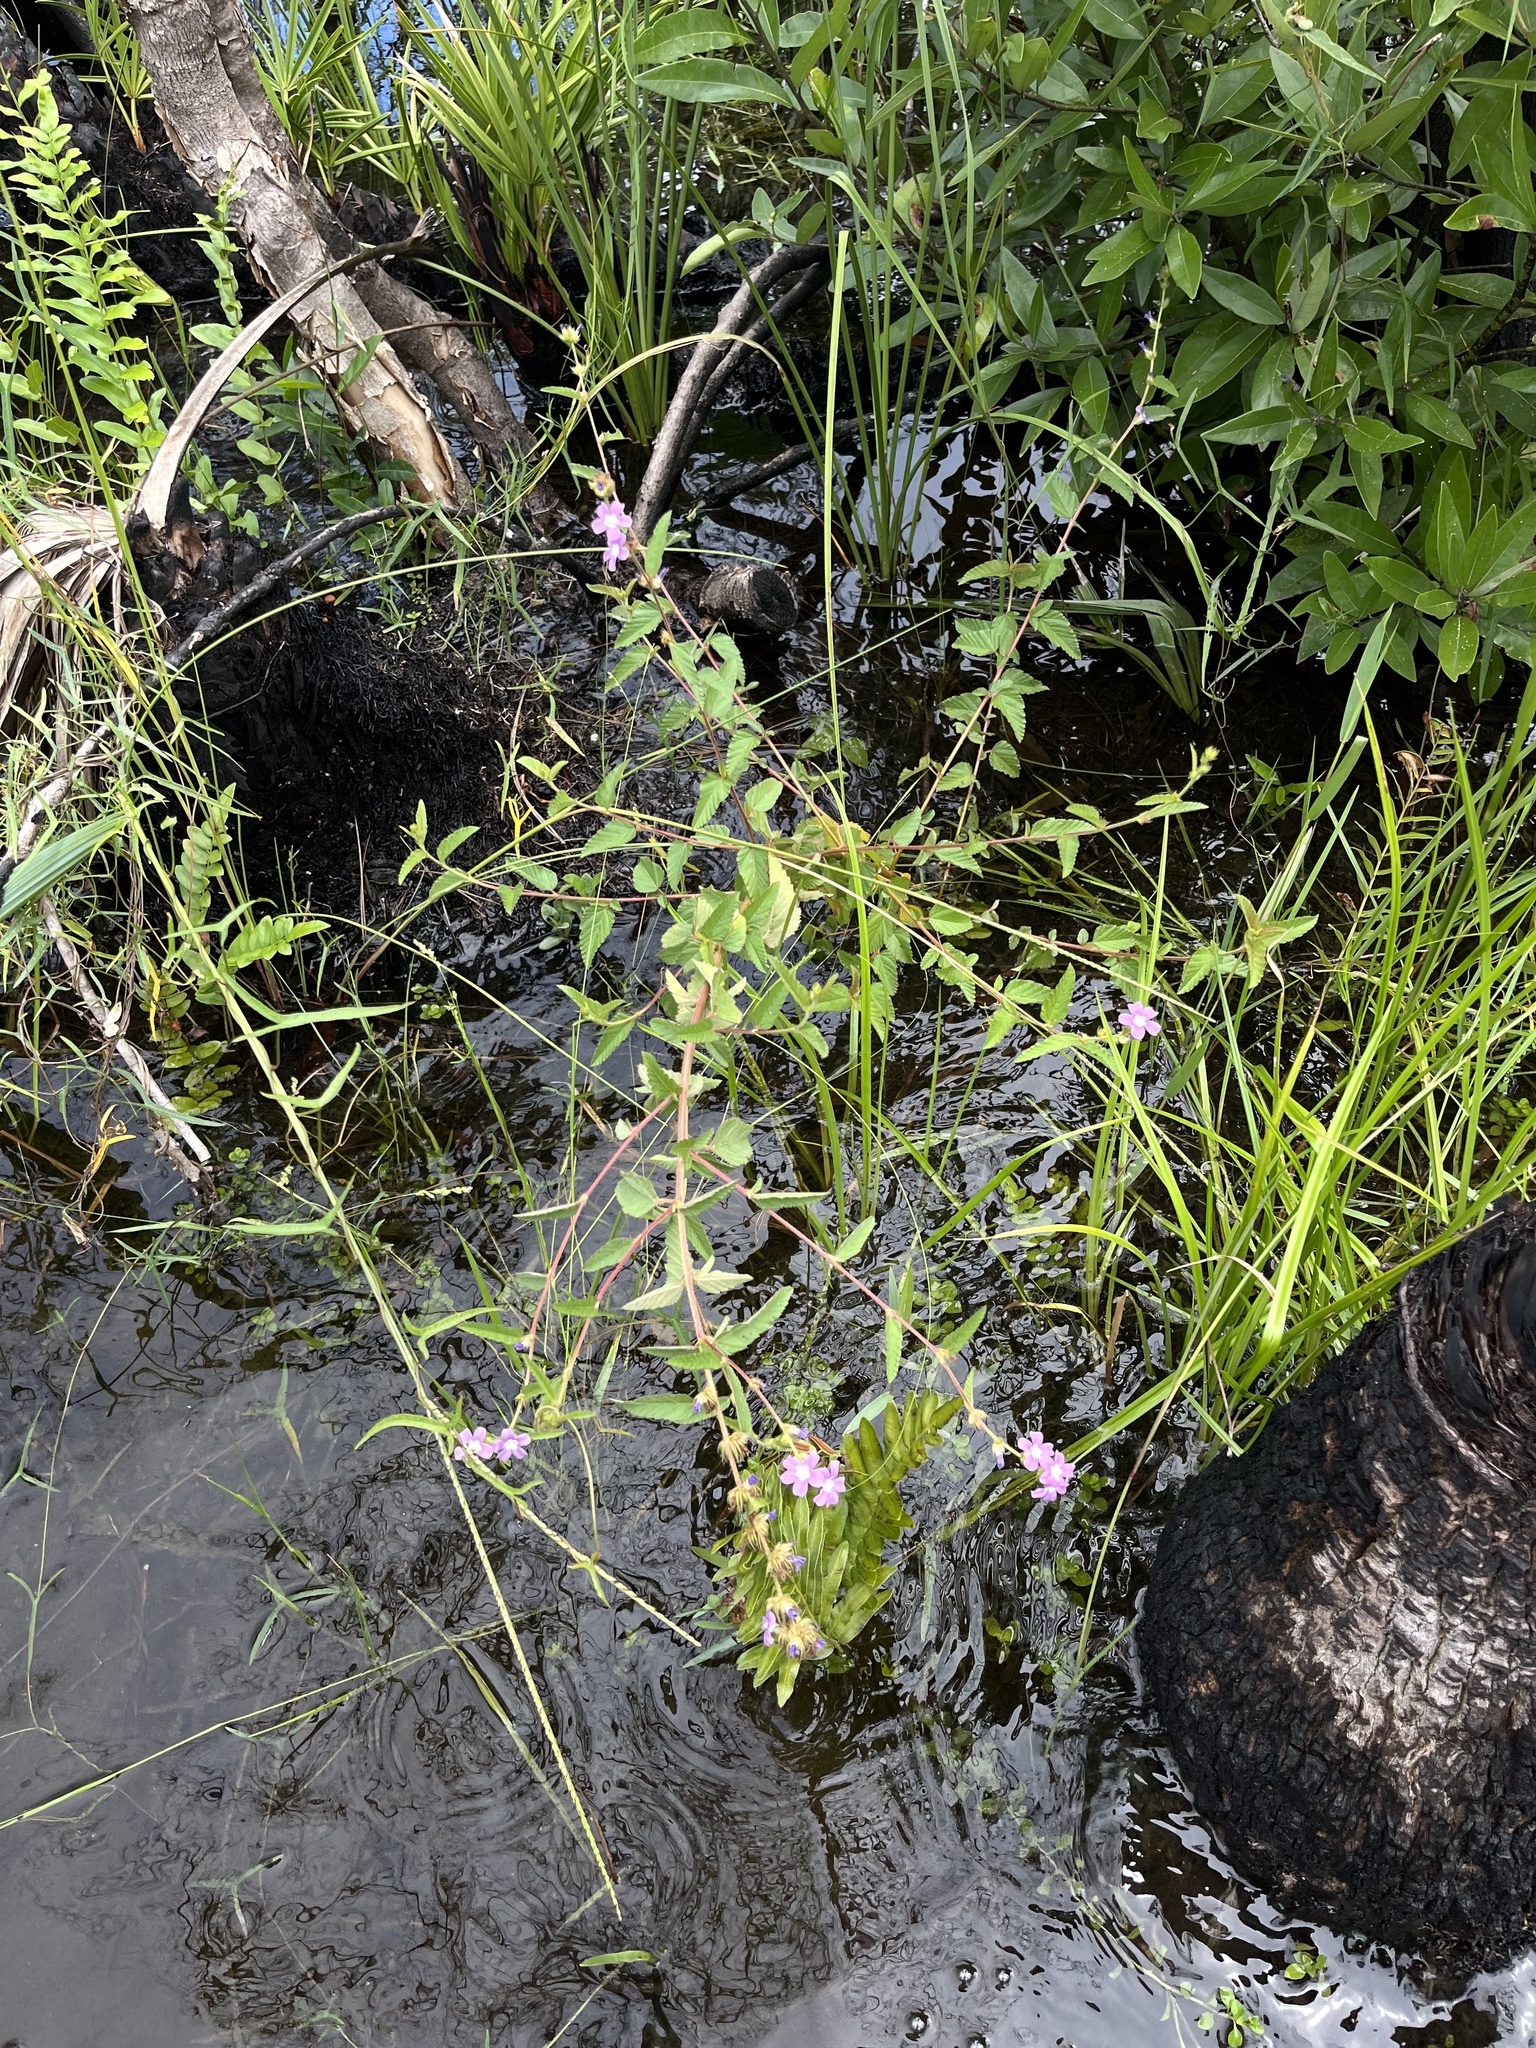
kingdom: Plantae
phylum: Tracheophyta
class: Magnoliopsida
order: Malvales
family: Malvaceae
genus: Melochia
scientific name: Melochia spicata
